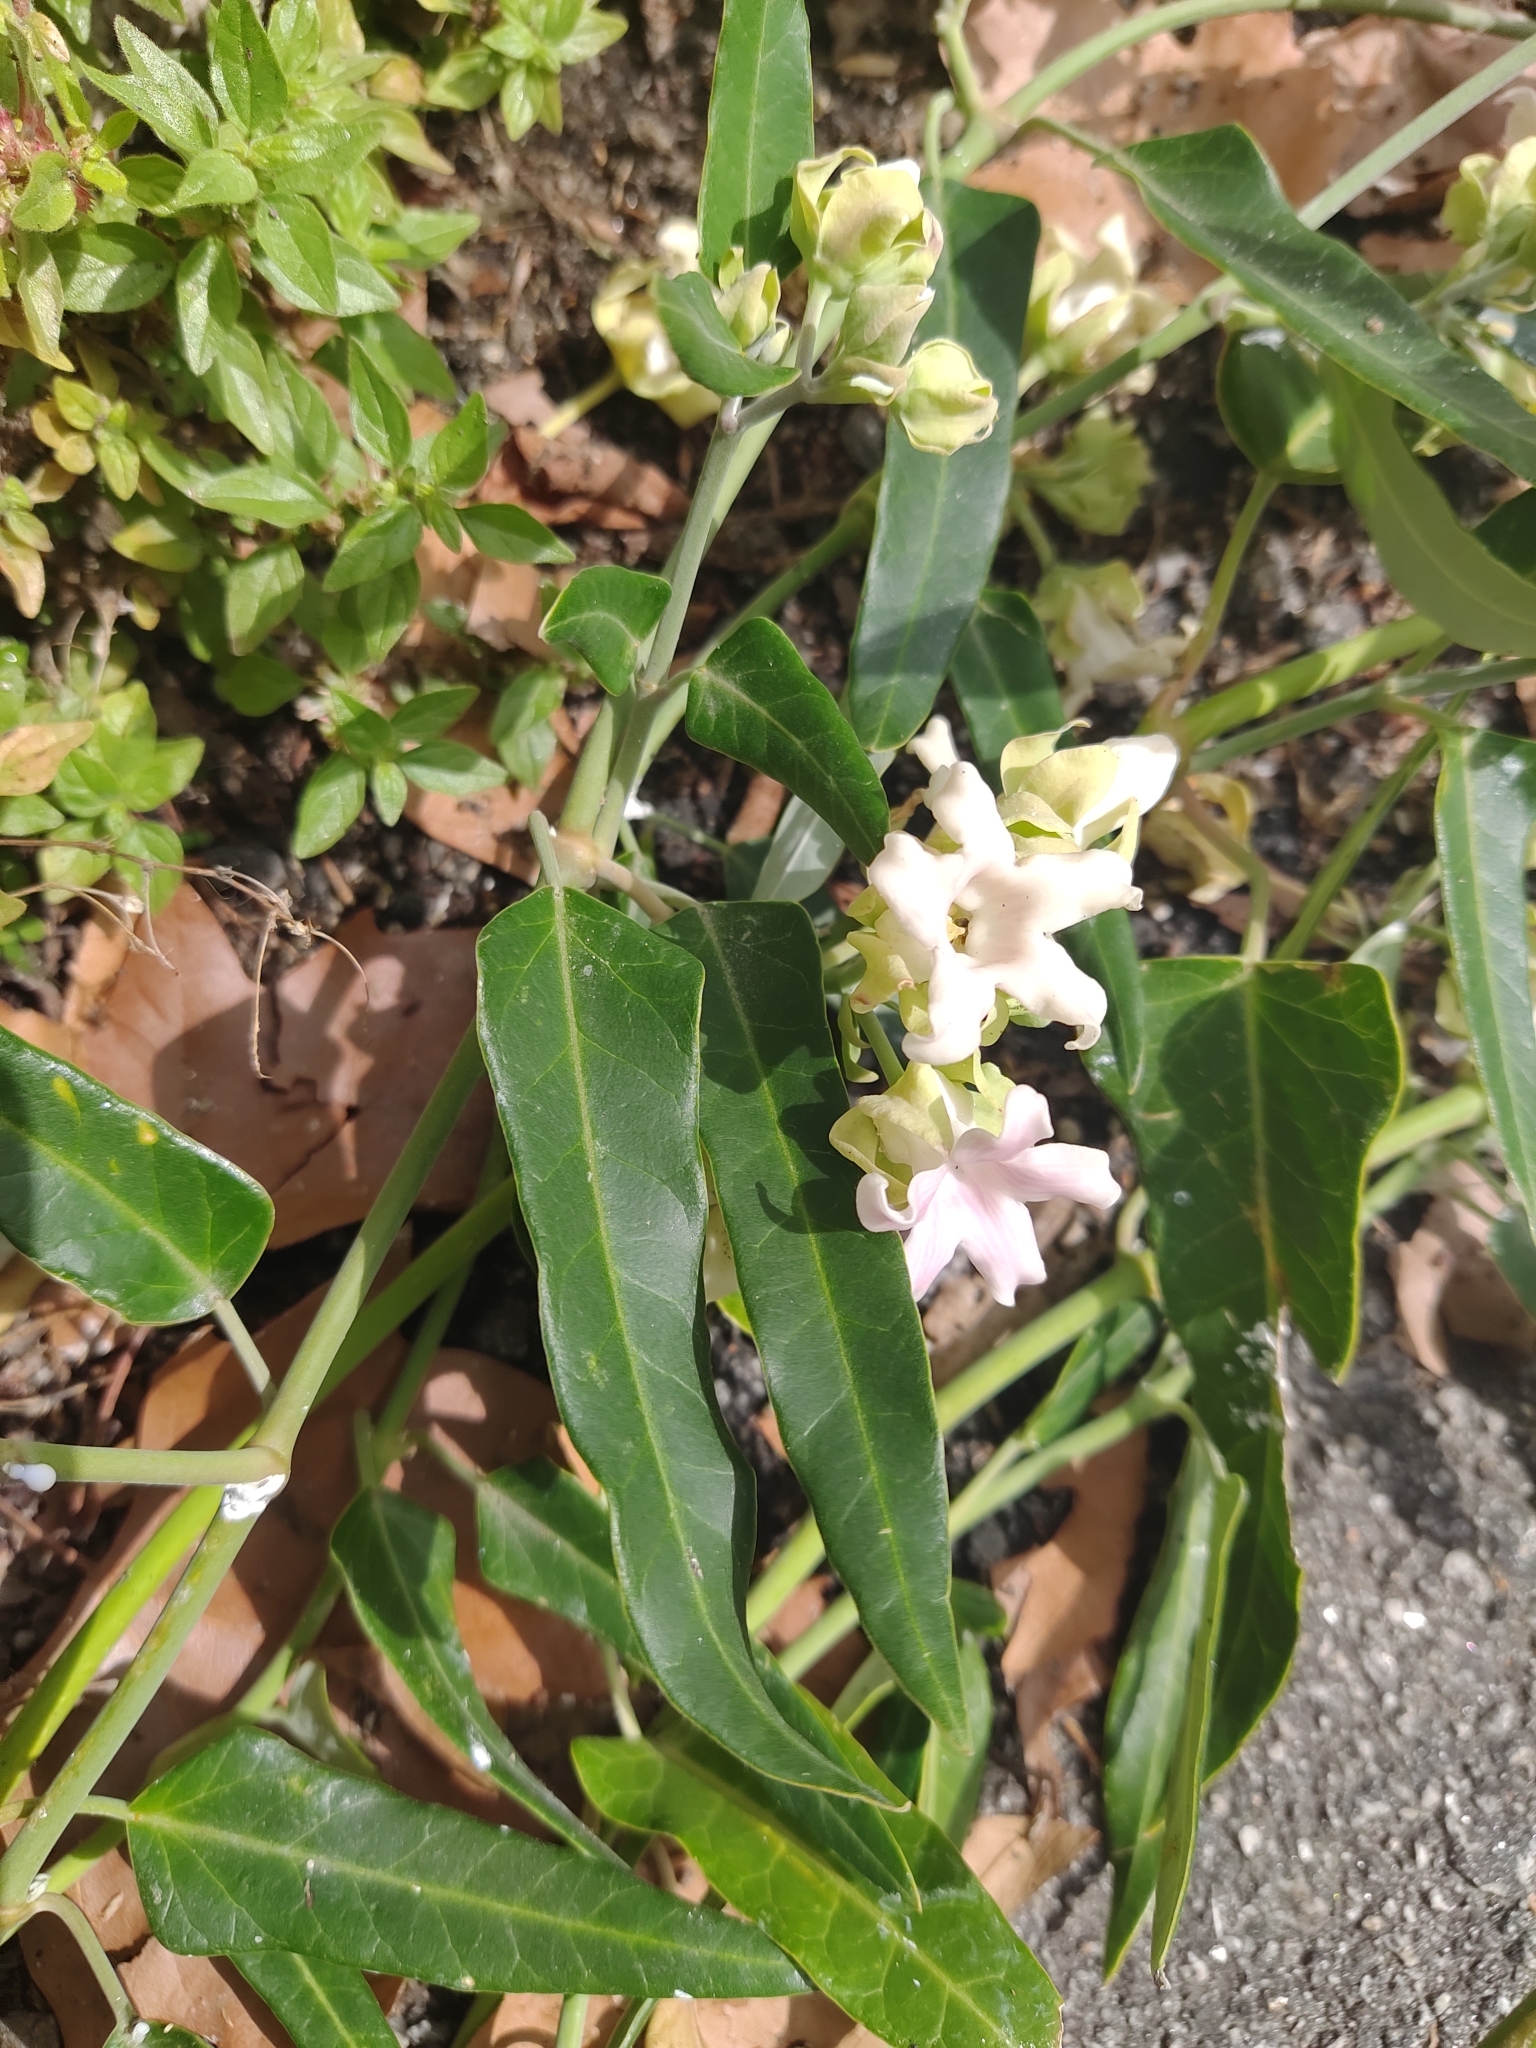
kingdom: Plantae
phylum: Tracheophyta
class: Magnoliopsida
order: Gentianales
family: Apocynaceae
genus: Araujia
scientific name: Araujia sericifera
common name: White bladderflower
